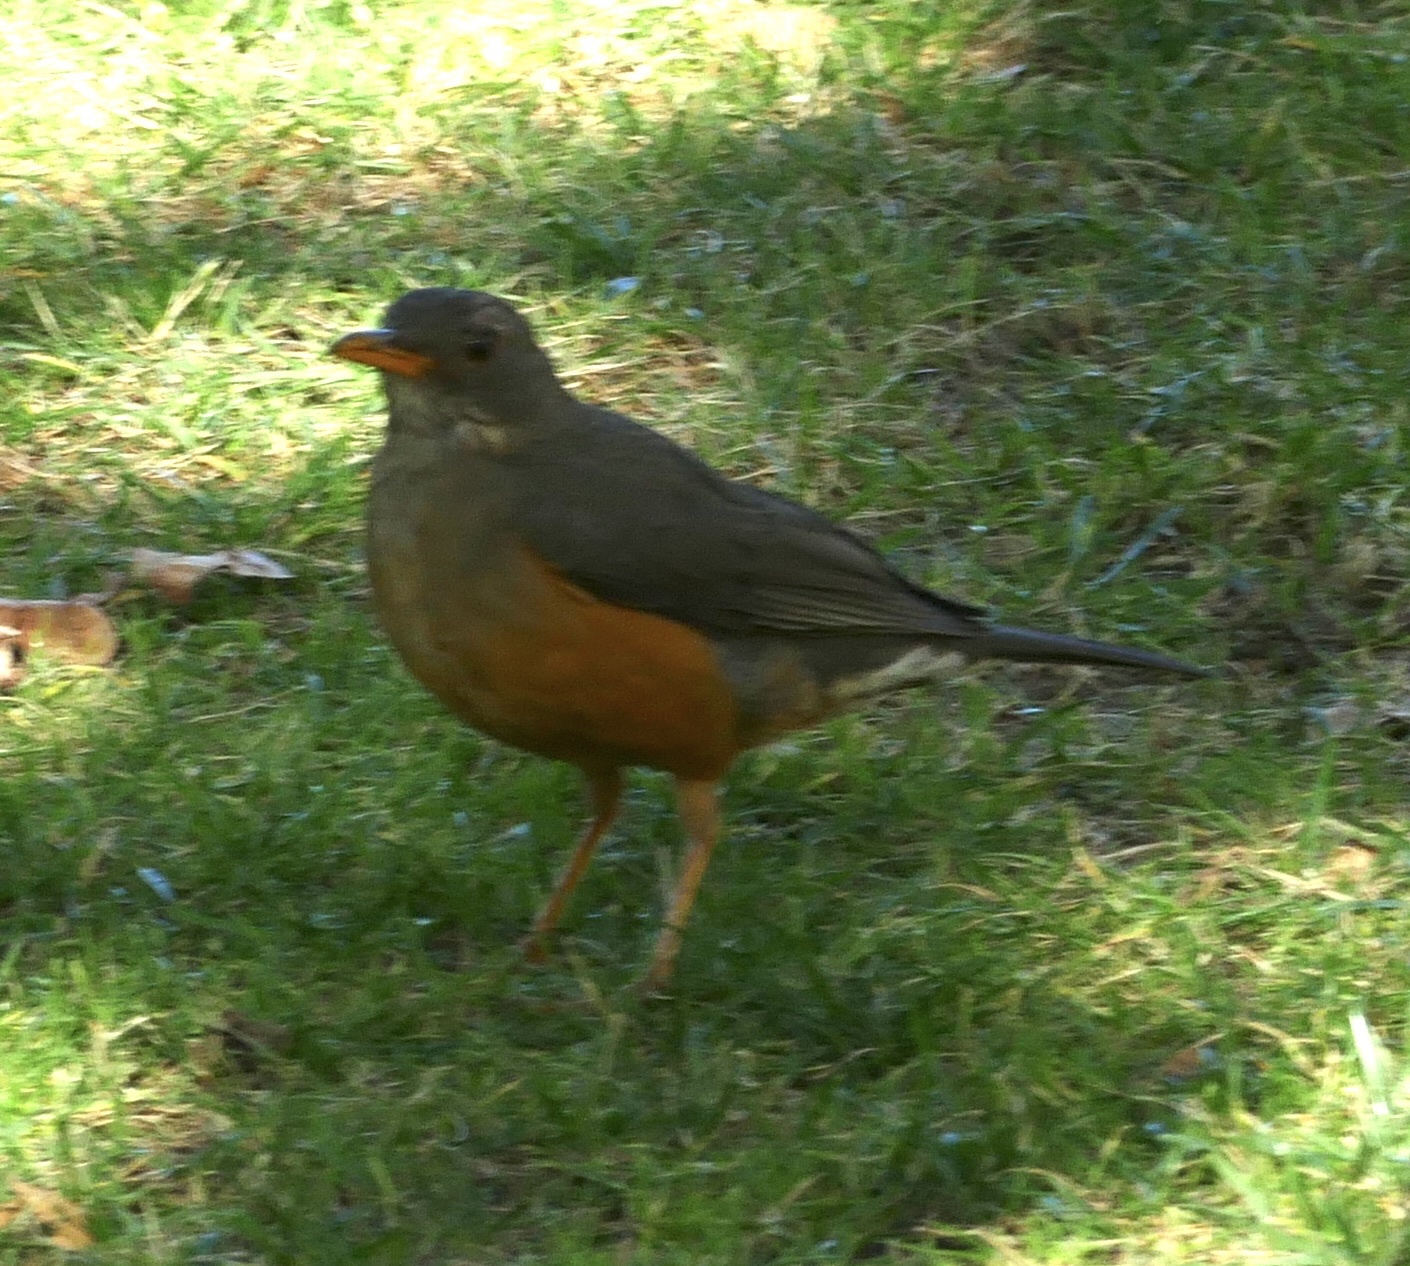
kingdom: Animalia
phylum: Chordata
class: Aves
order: Passeriformes
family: Turdidae
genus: Turdus
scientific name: Turdus olivaceus
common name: Olive thrush
